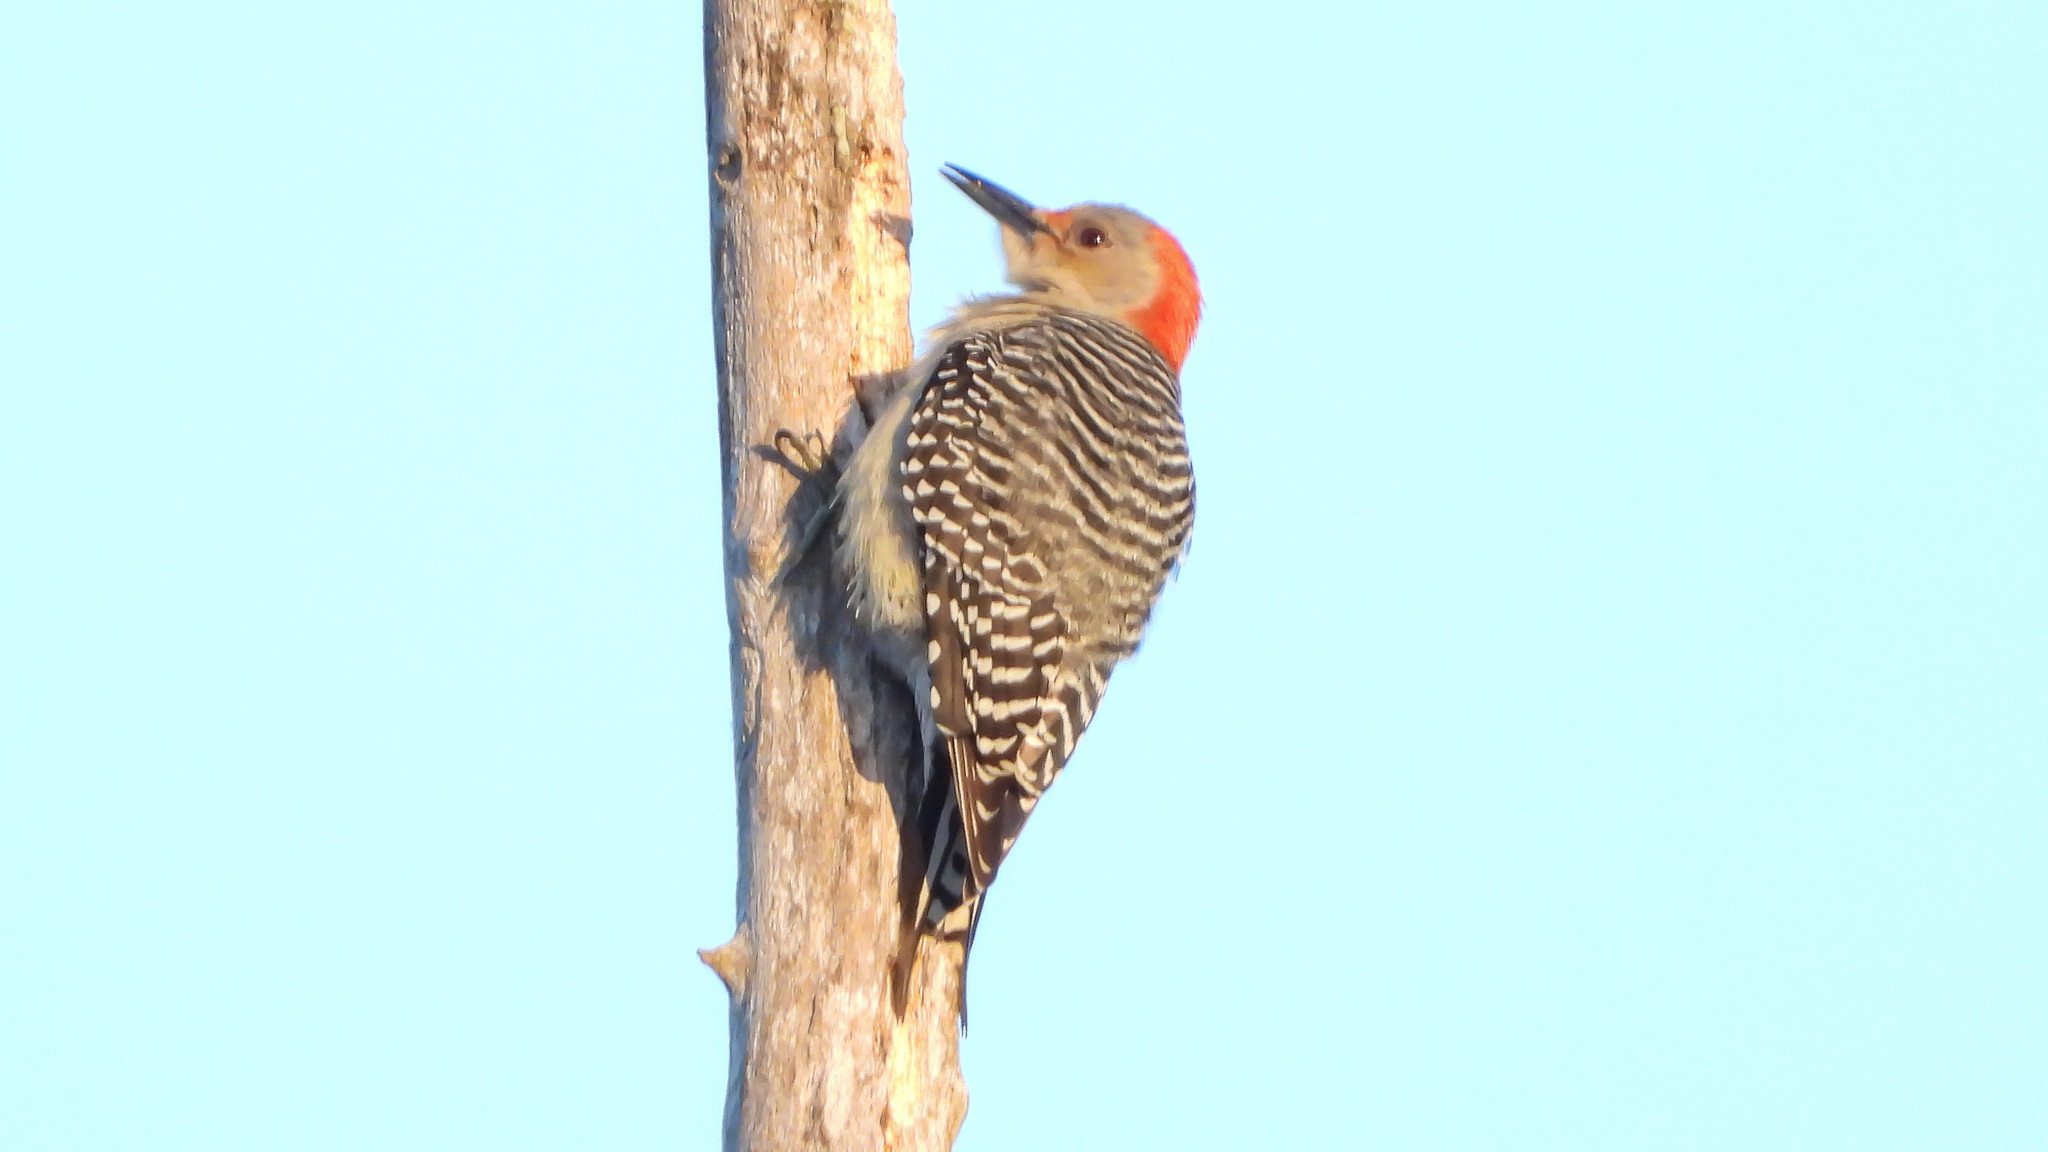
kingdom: Animalia
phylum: Chordata
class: Aves
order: Piciformes
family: Picidae
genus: Melanerpes
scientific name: Melanerpes carolinus
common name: Red-bellied woodpecker
